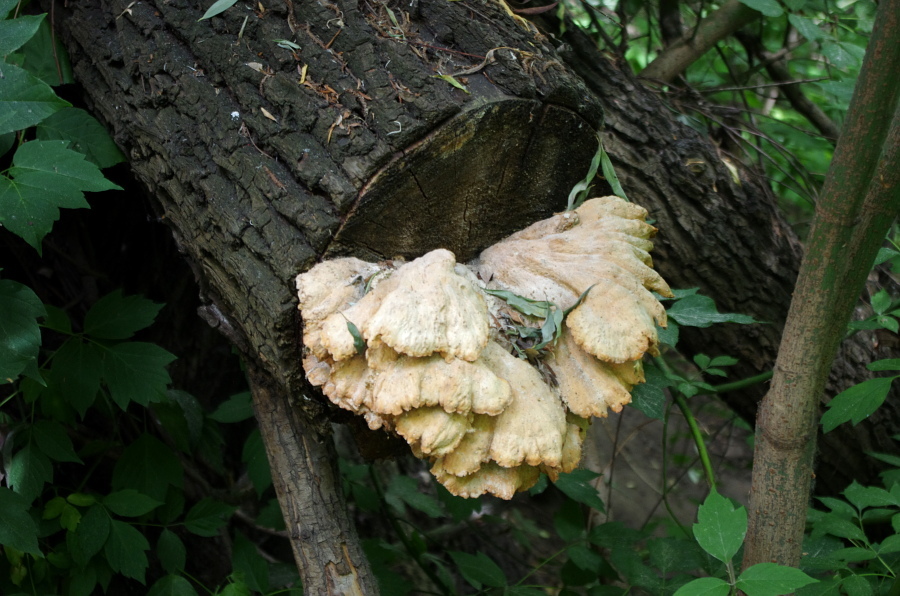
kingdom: Fungi
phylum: Basidiomycota
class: Agaricomycetes
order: Polyporales
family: Laetiporaceae
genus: Laetiporus
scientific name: Laetiporus sulphureus
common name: Chicken of the woods
